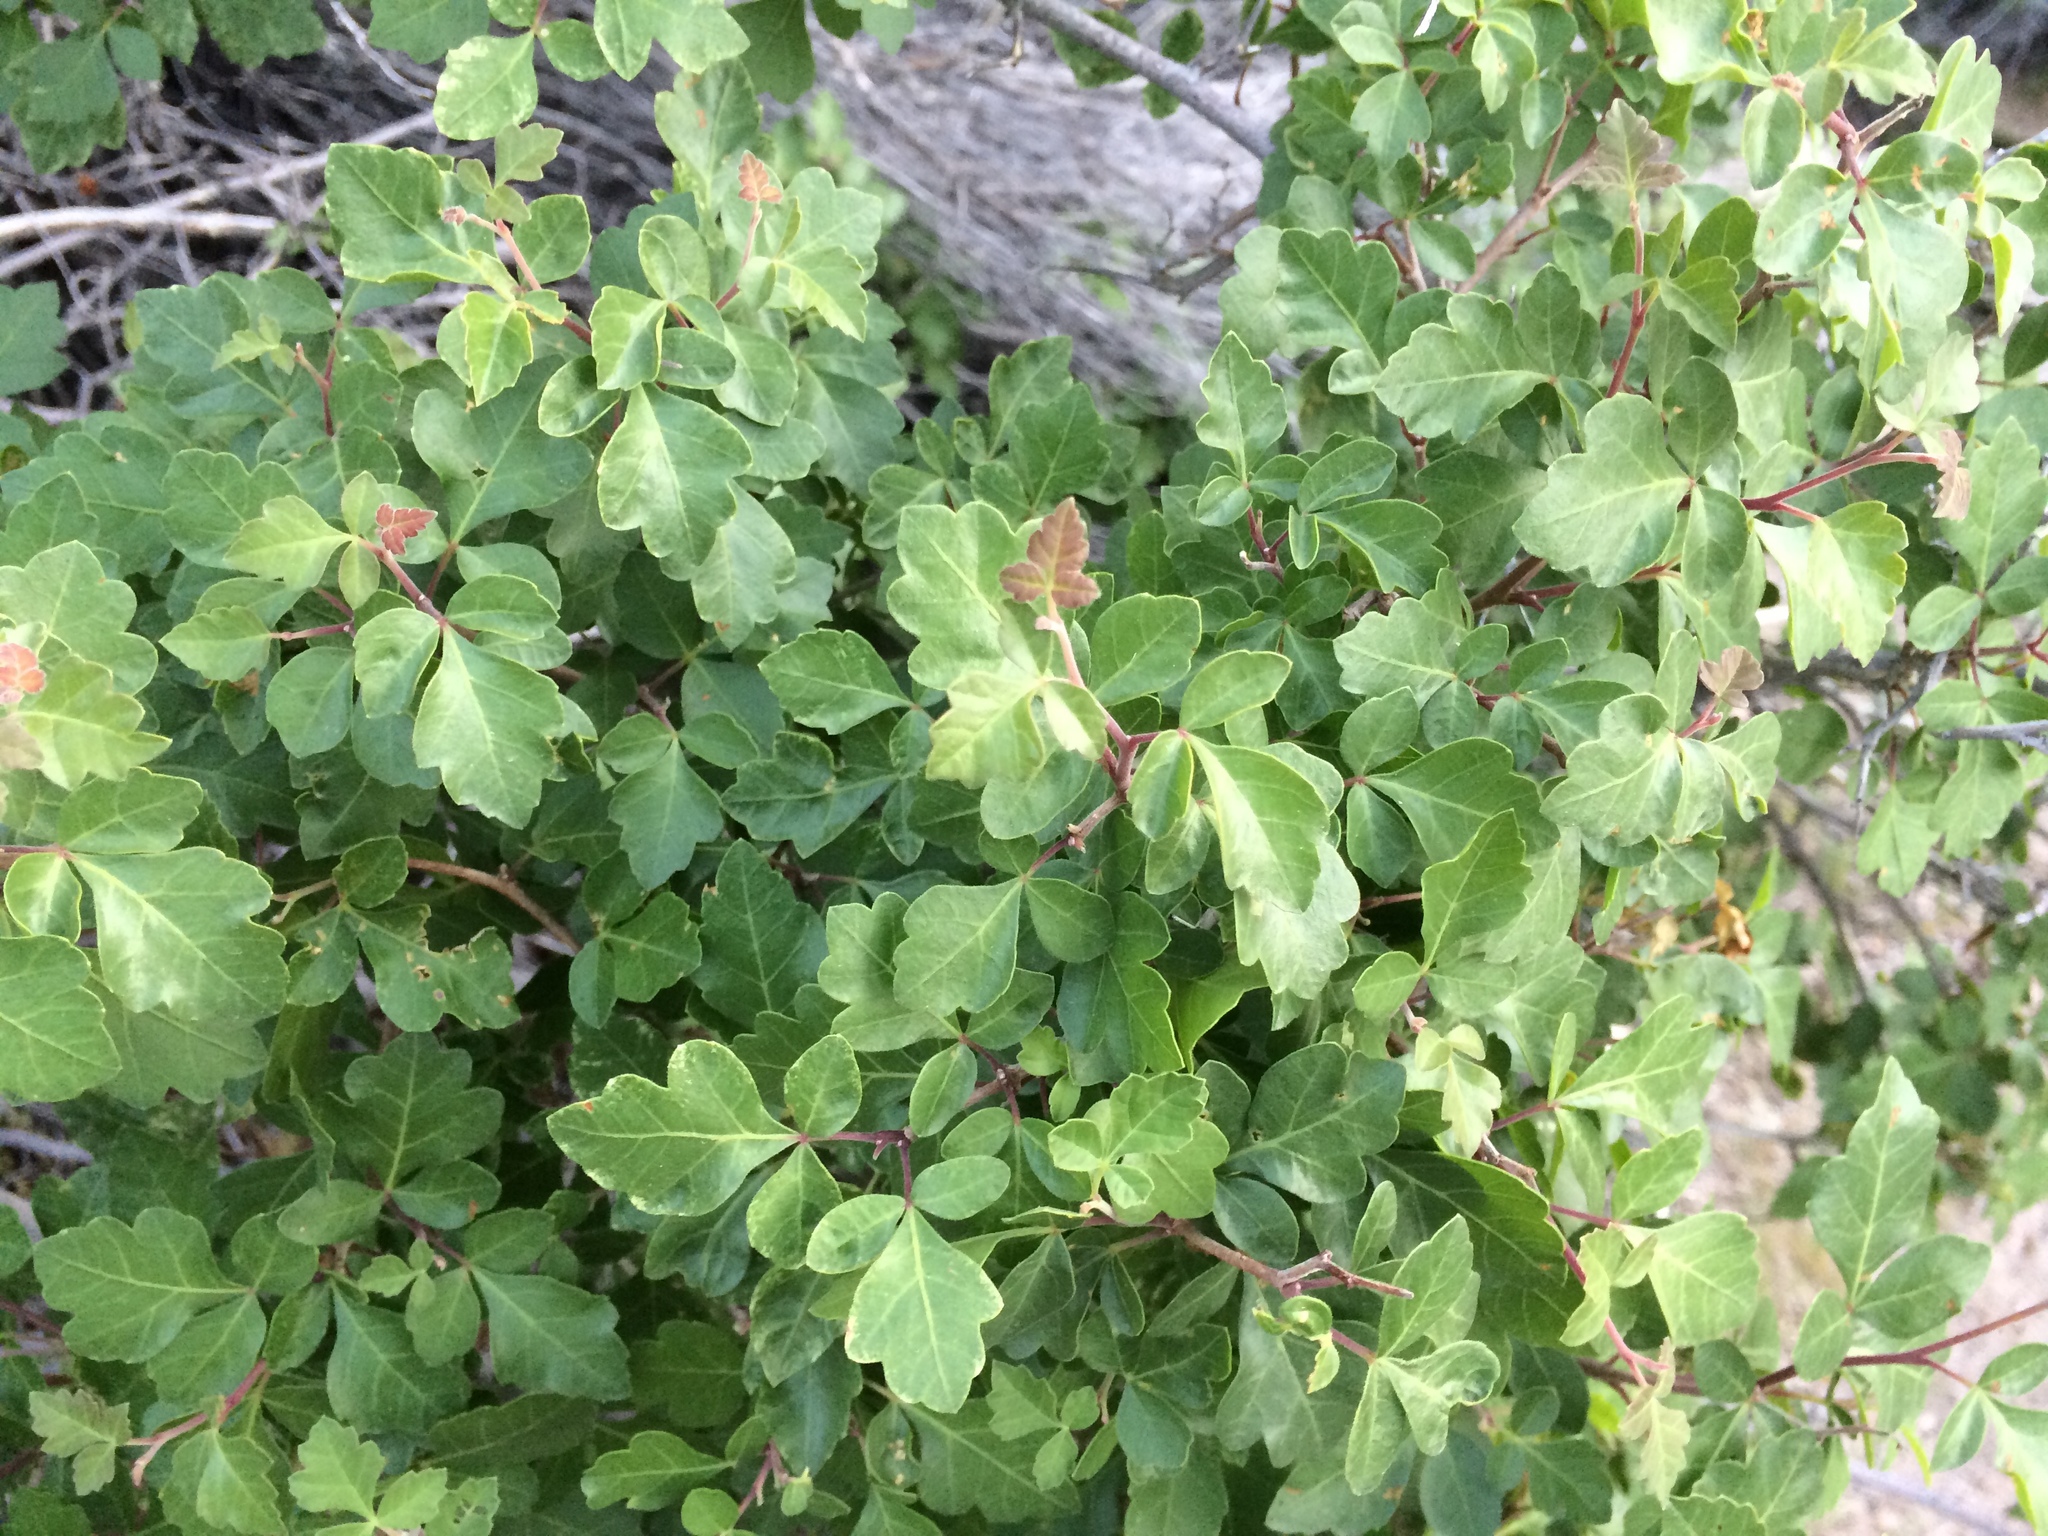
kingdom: Plantae
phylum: Tracheophyta
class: Magnoliopsida
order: Sapindales
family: Anacardiaceae
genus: Rhus
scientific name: Rhus aromatica
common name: Aromatic sumac
